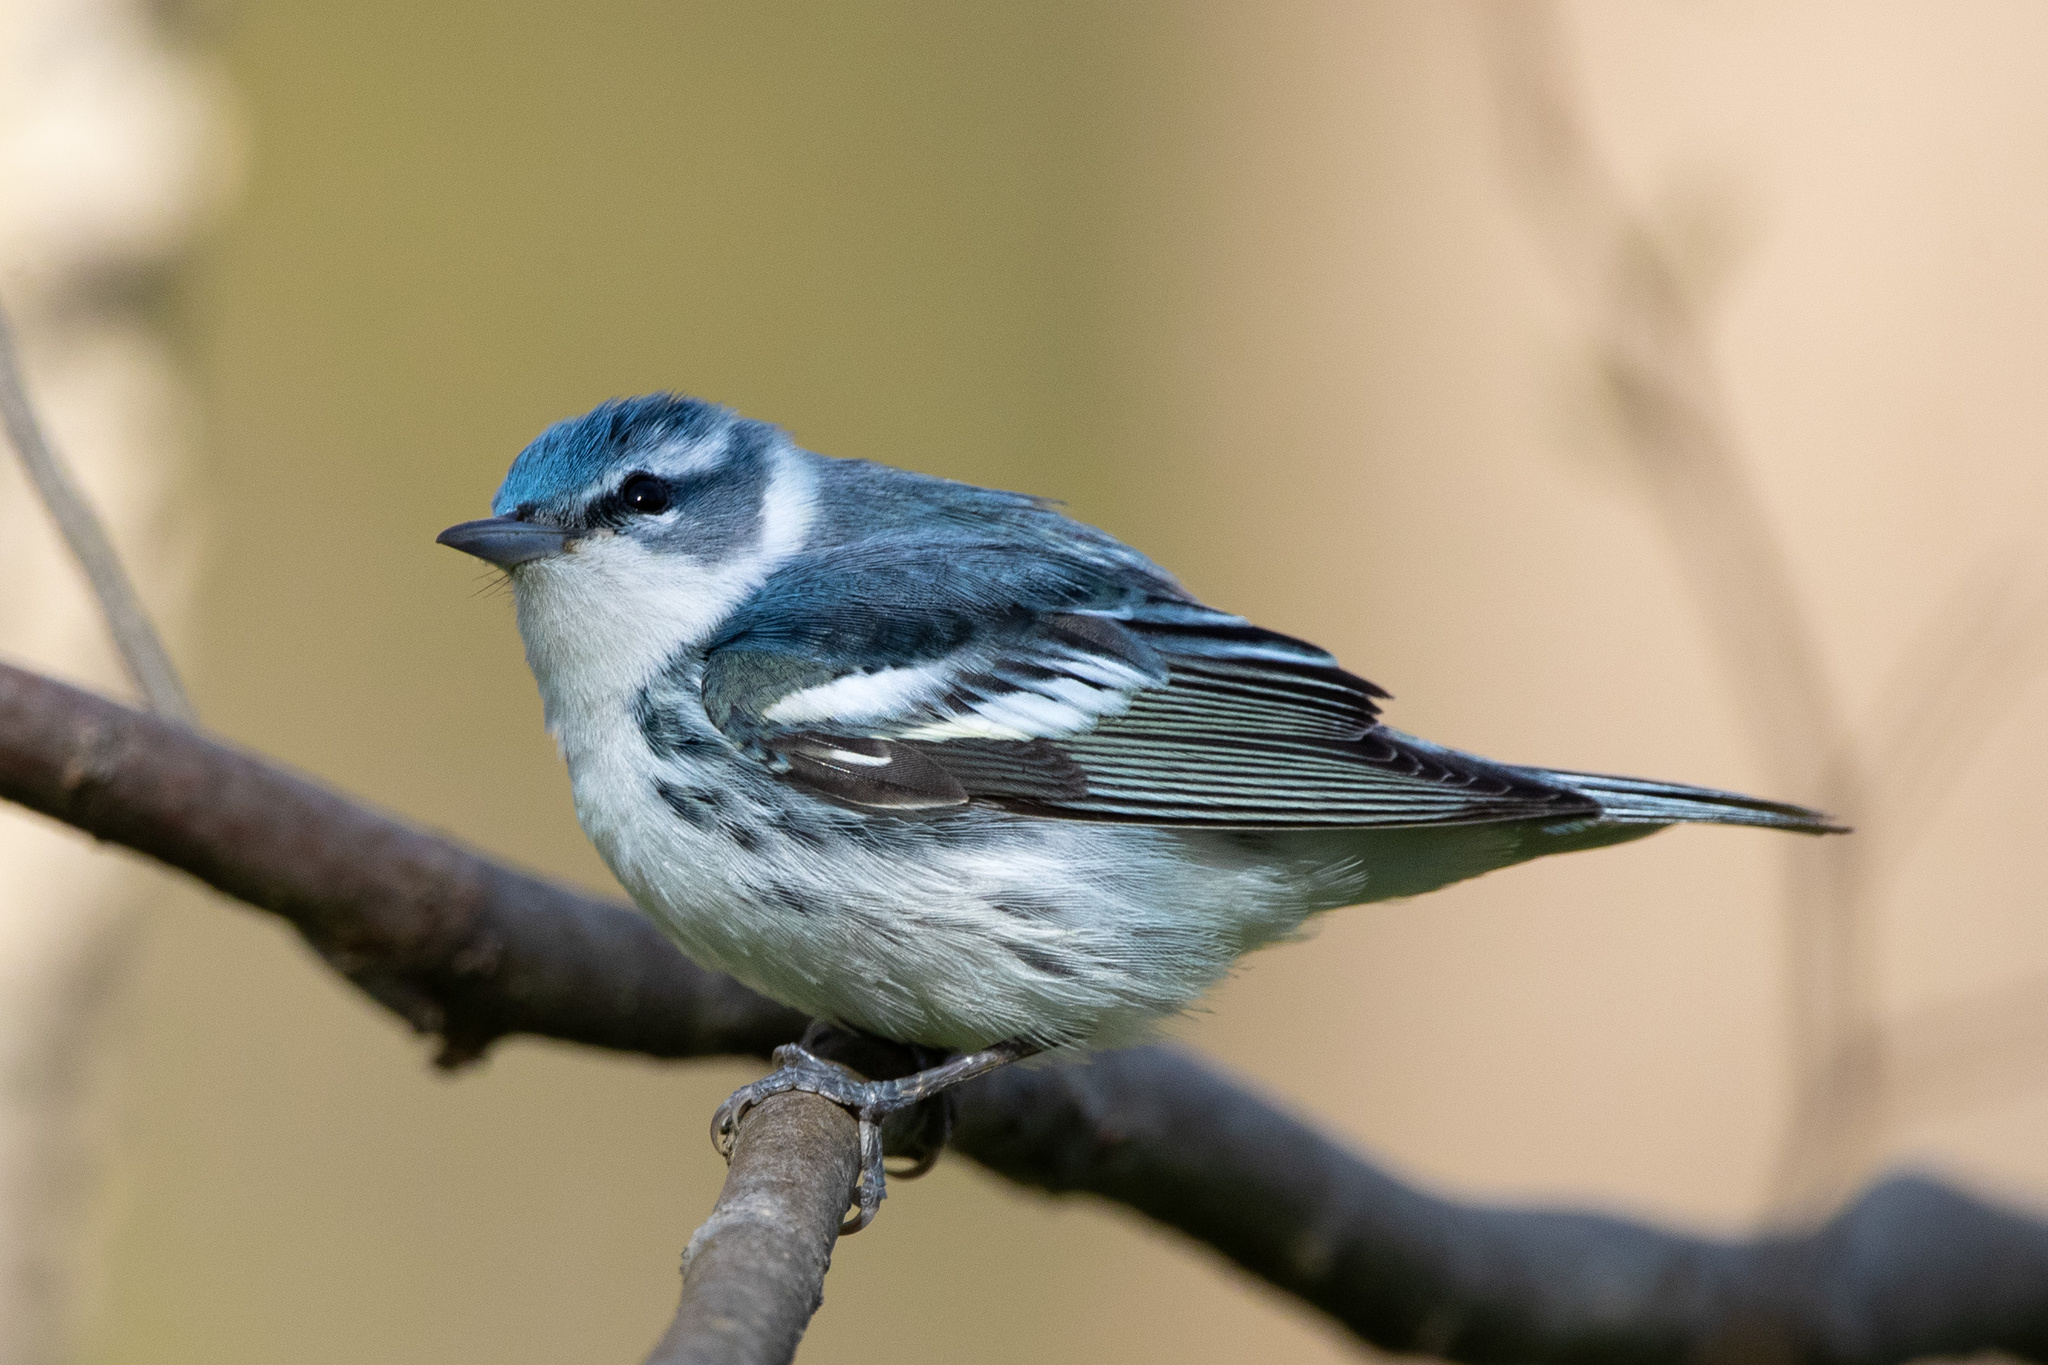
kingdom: Animalia
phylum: Chordata
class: Aves
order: Passeriformes
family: Parulidae
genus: Setophaga
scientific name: Setophaga cerulea
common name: Cerulean warbler
